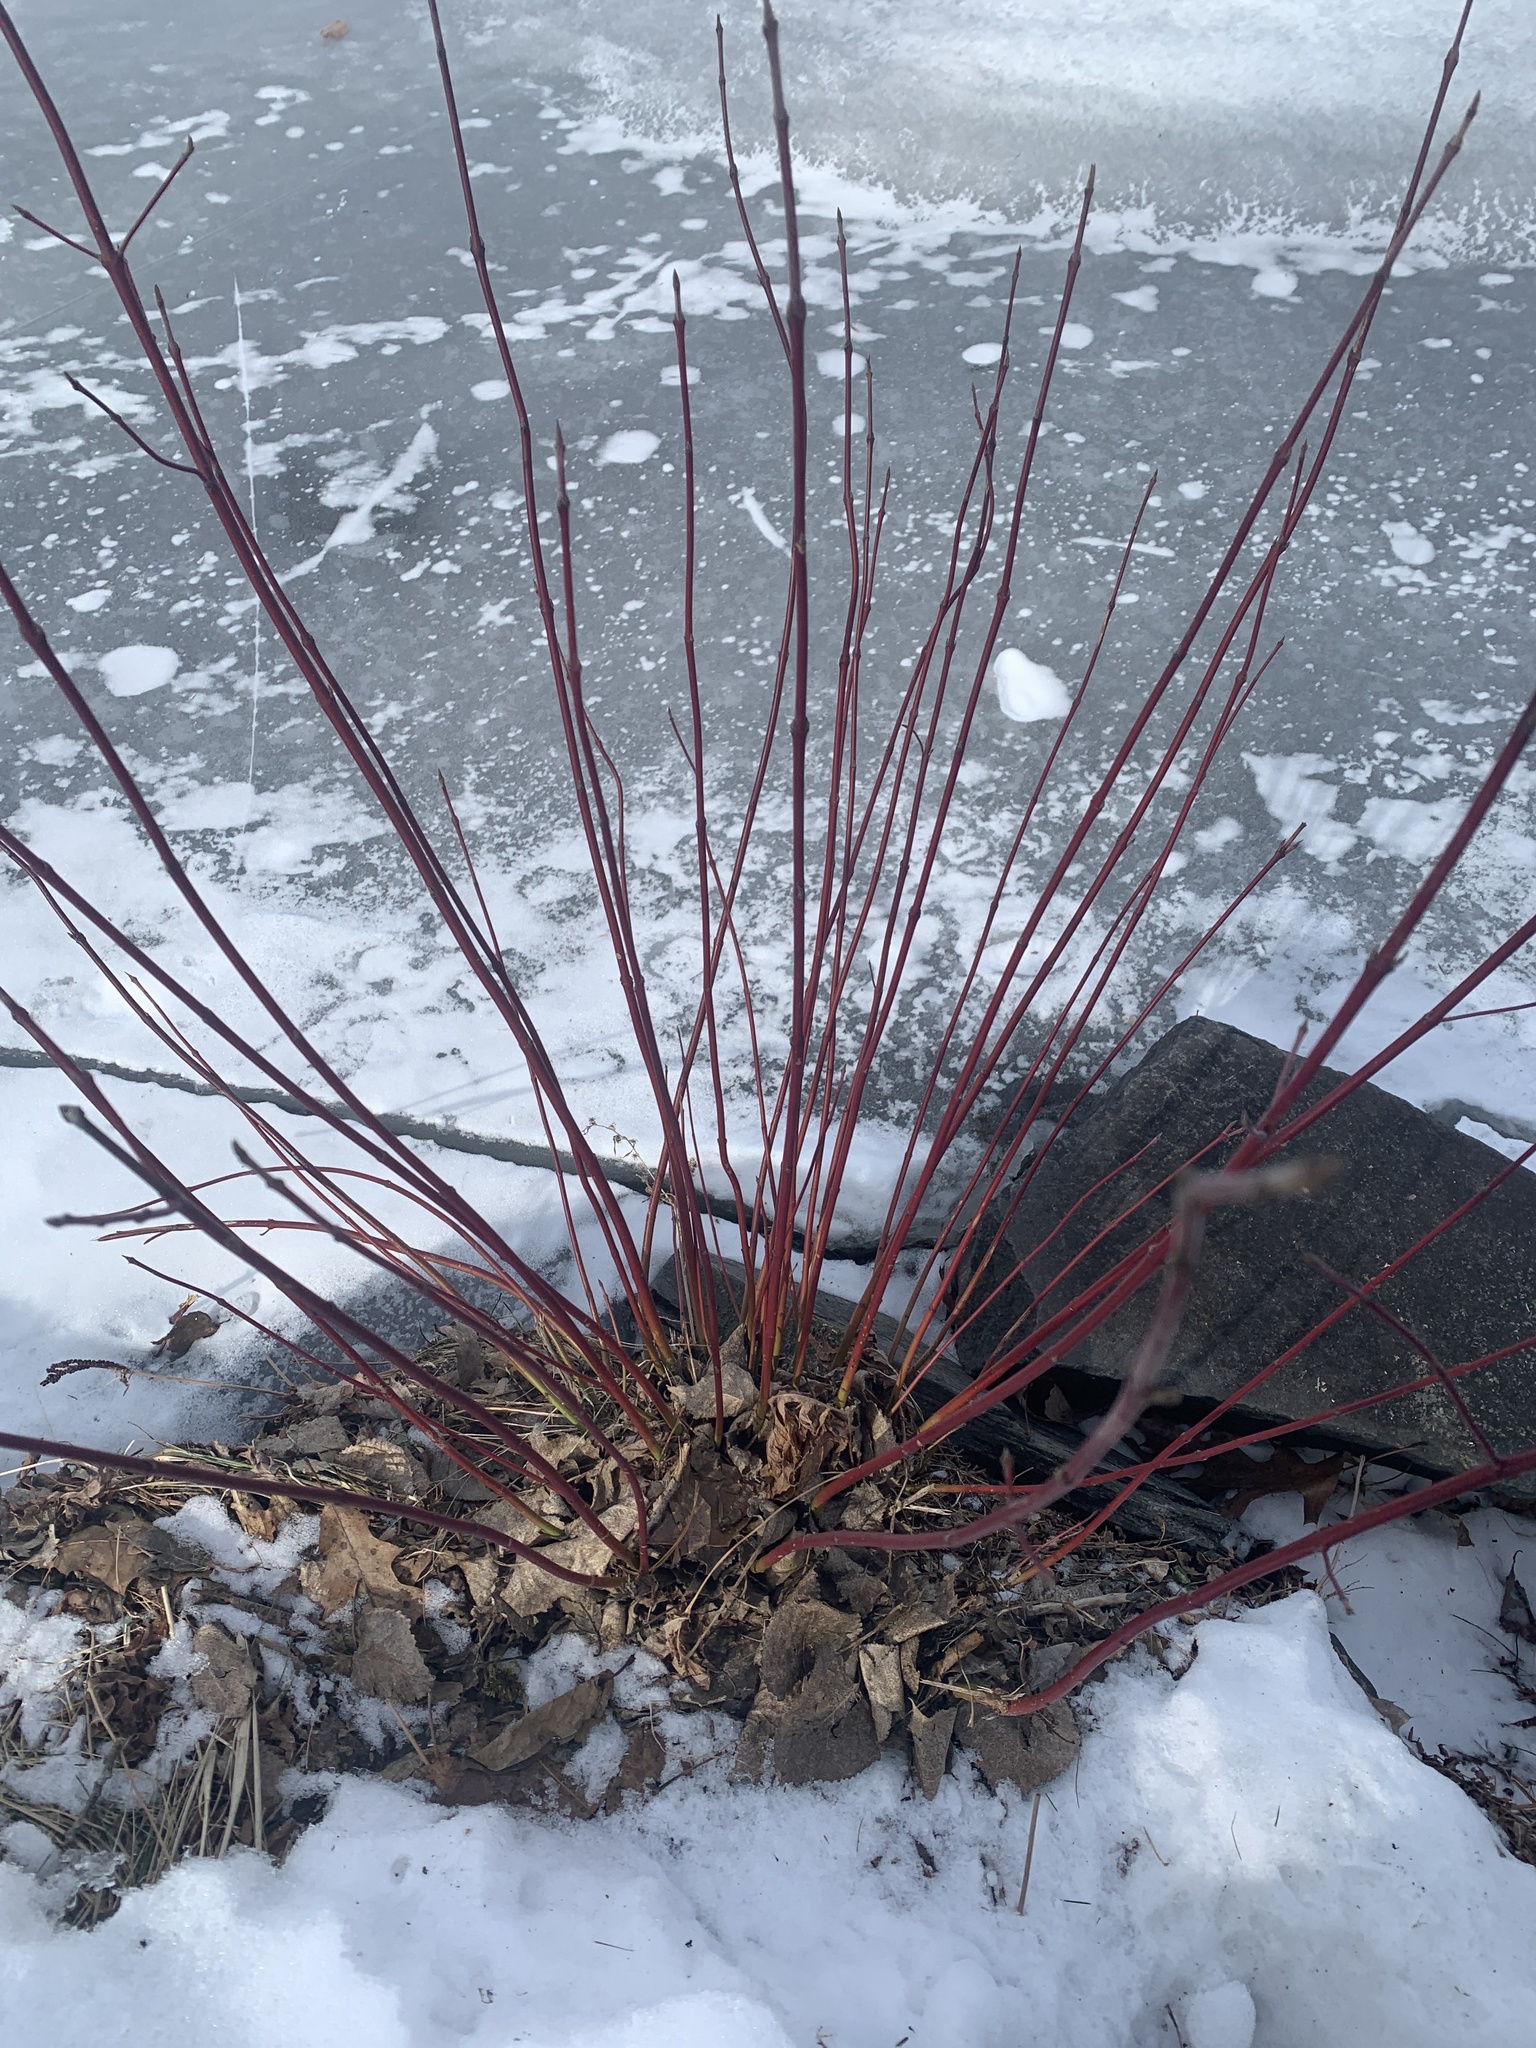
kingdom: Plantae
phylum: Tracheophyta
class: Magnoliopsida
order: Cornales
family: Cornaceae
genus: Cornus
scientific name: Cornus sericea
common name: Red-osier dogwood
